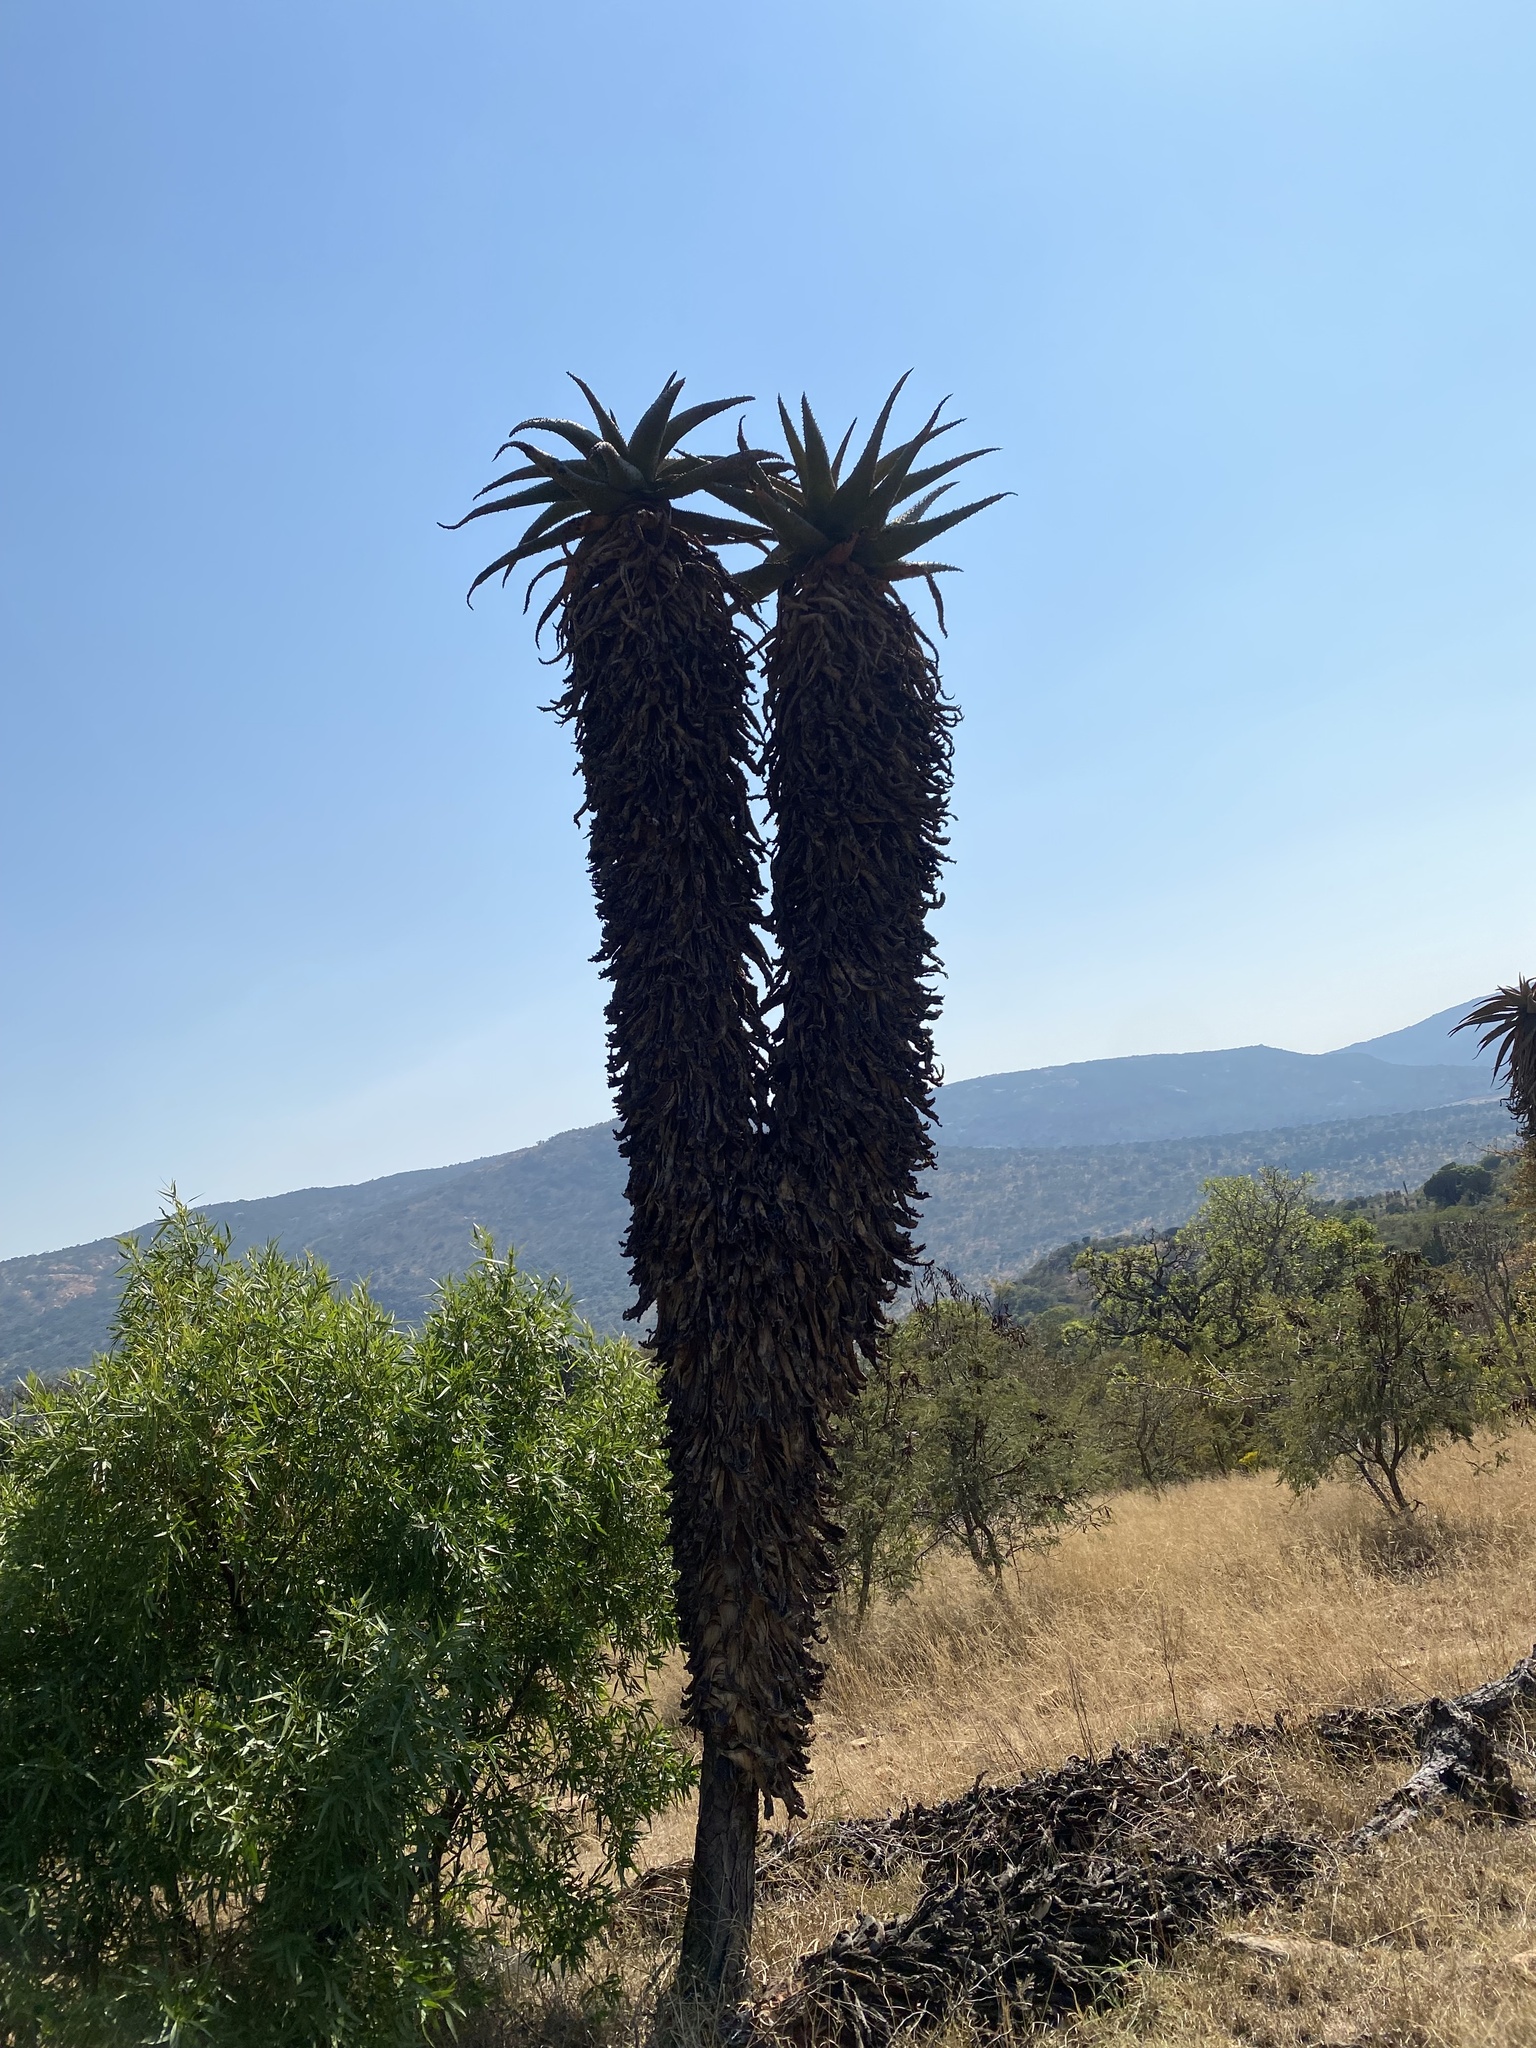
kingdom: Plantae
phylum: Tracheophyta
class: Liliopsida
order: Asparagales
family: Asphodelaceae
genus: Aloe
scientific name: Aloe marlothii
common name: Flat-flowered aloe
